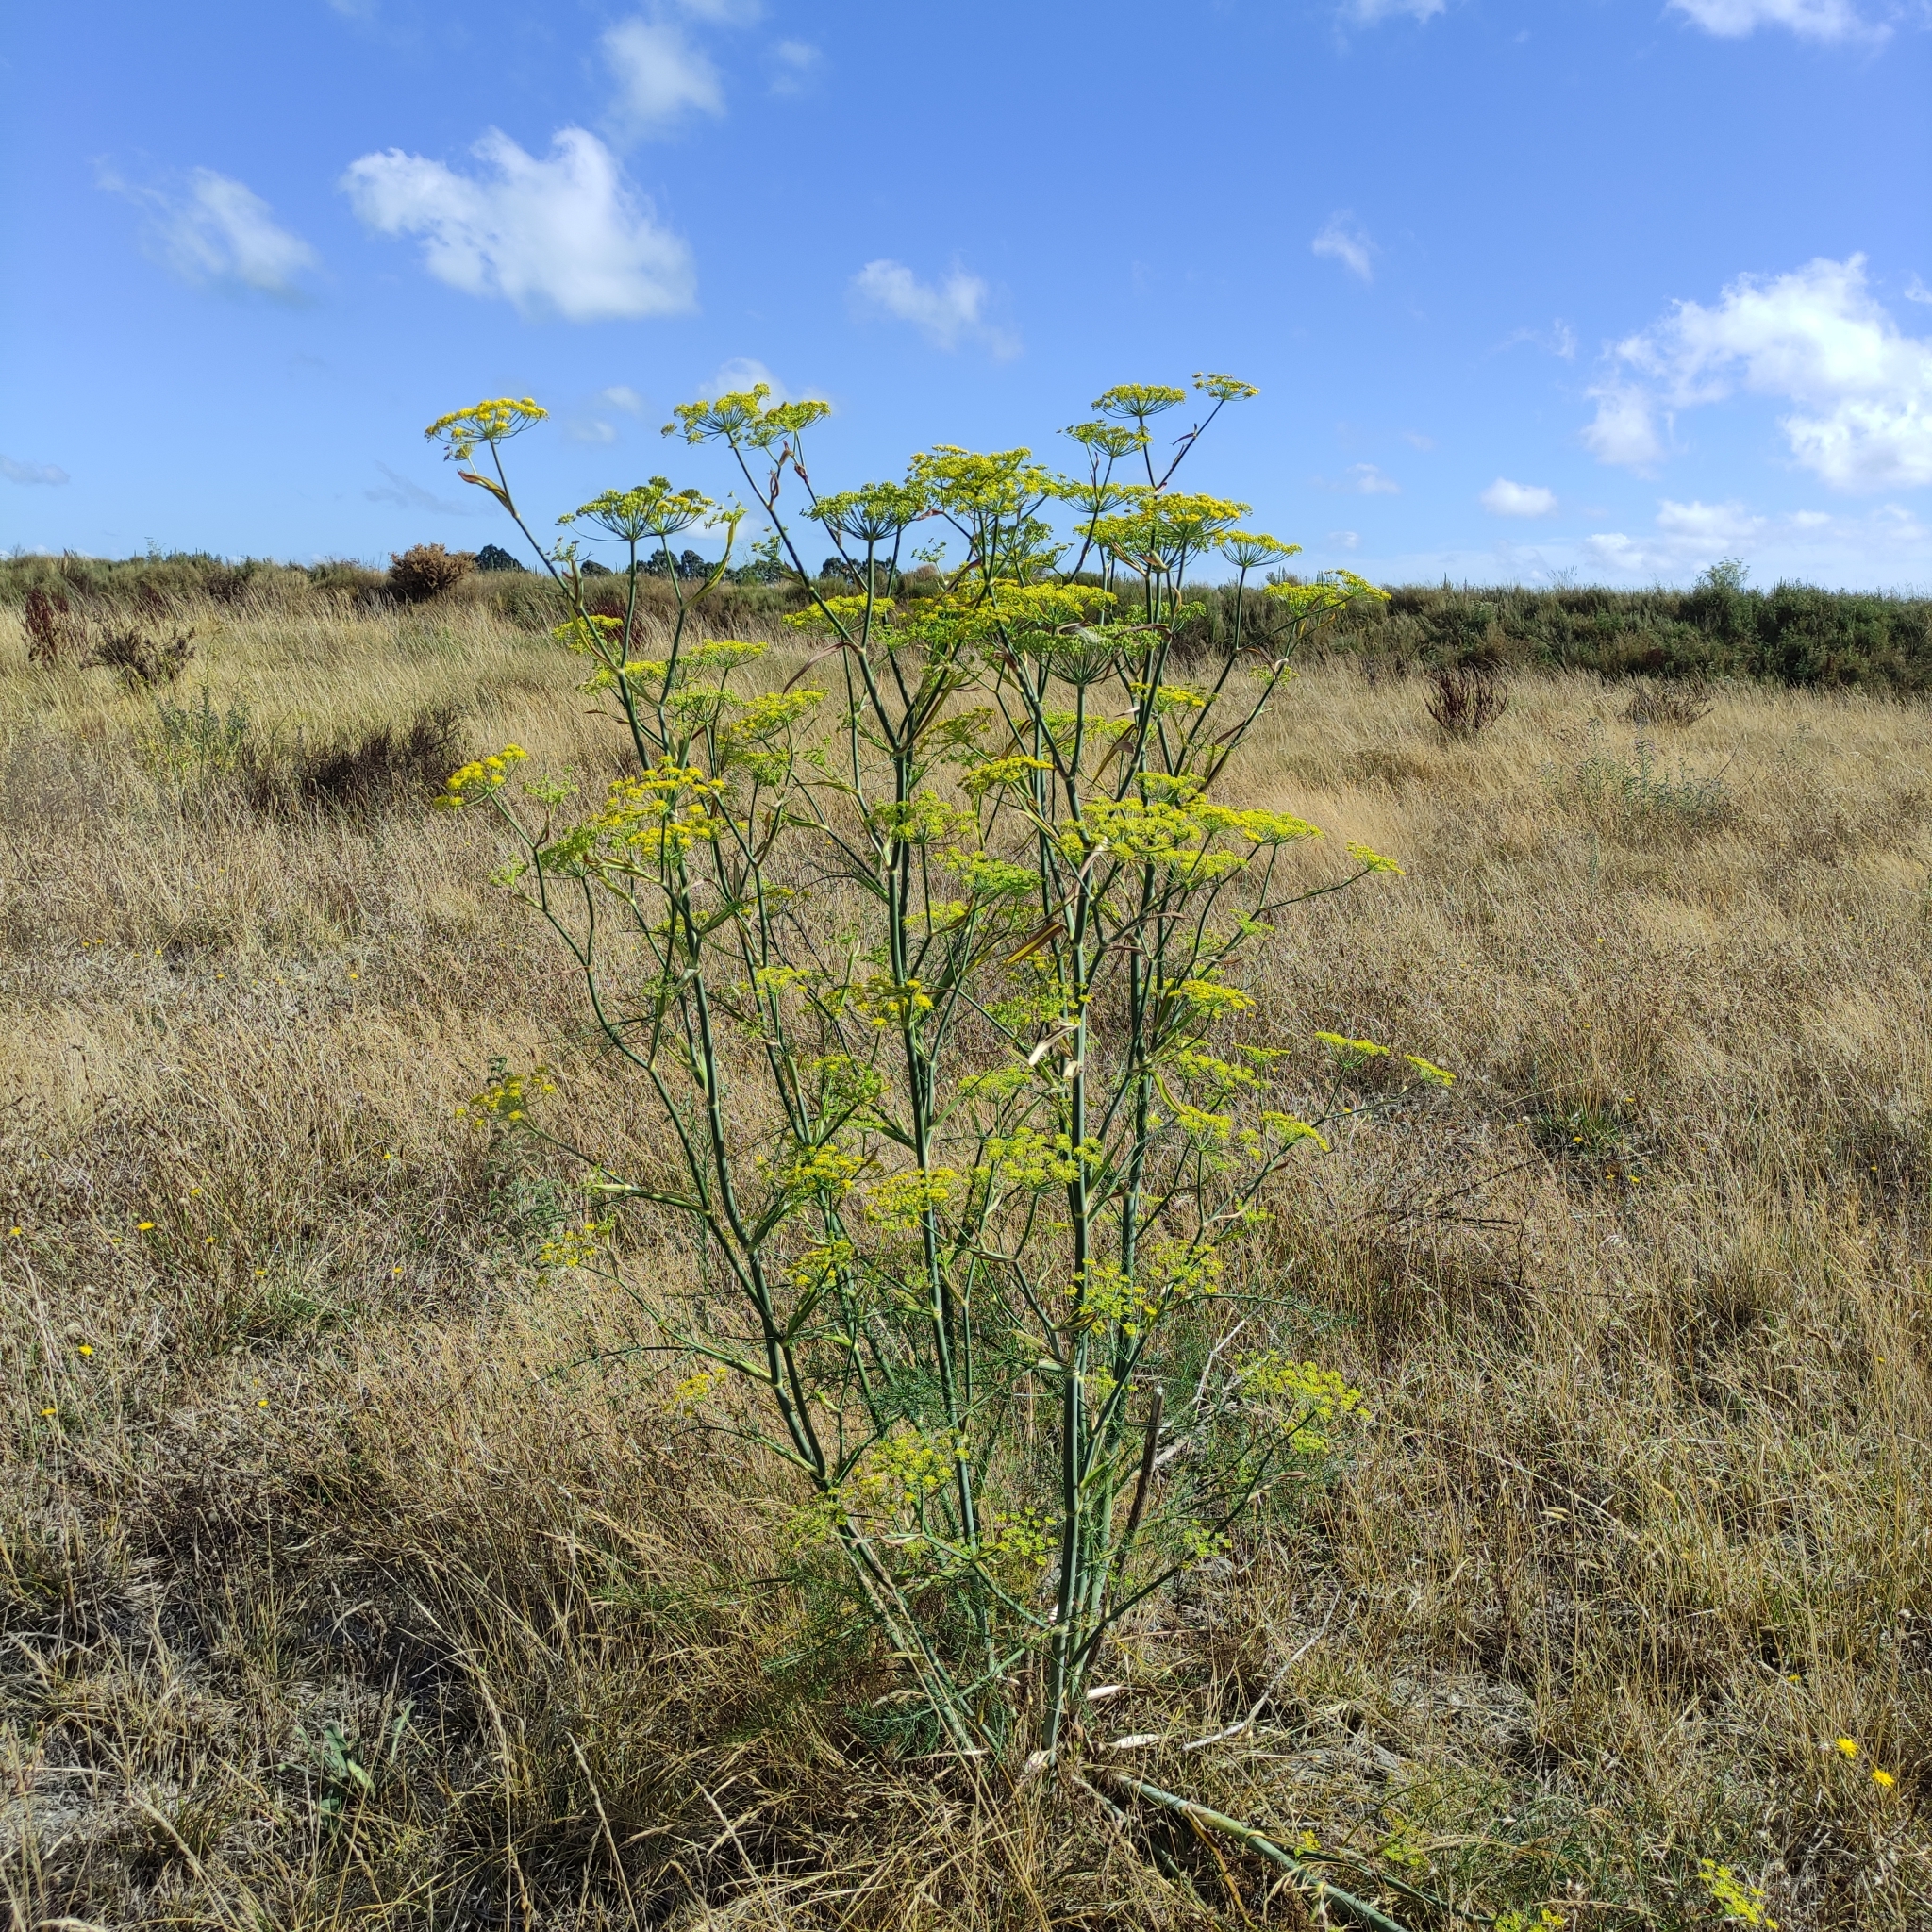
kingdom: Plantae
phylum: Tracheophyta
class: Magnoliopsida
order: Apiales
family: Apiaceae
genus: Foeniculum
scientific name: Foeniculum vulgare
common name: Fennel
